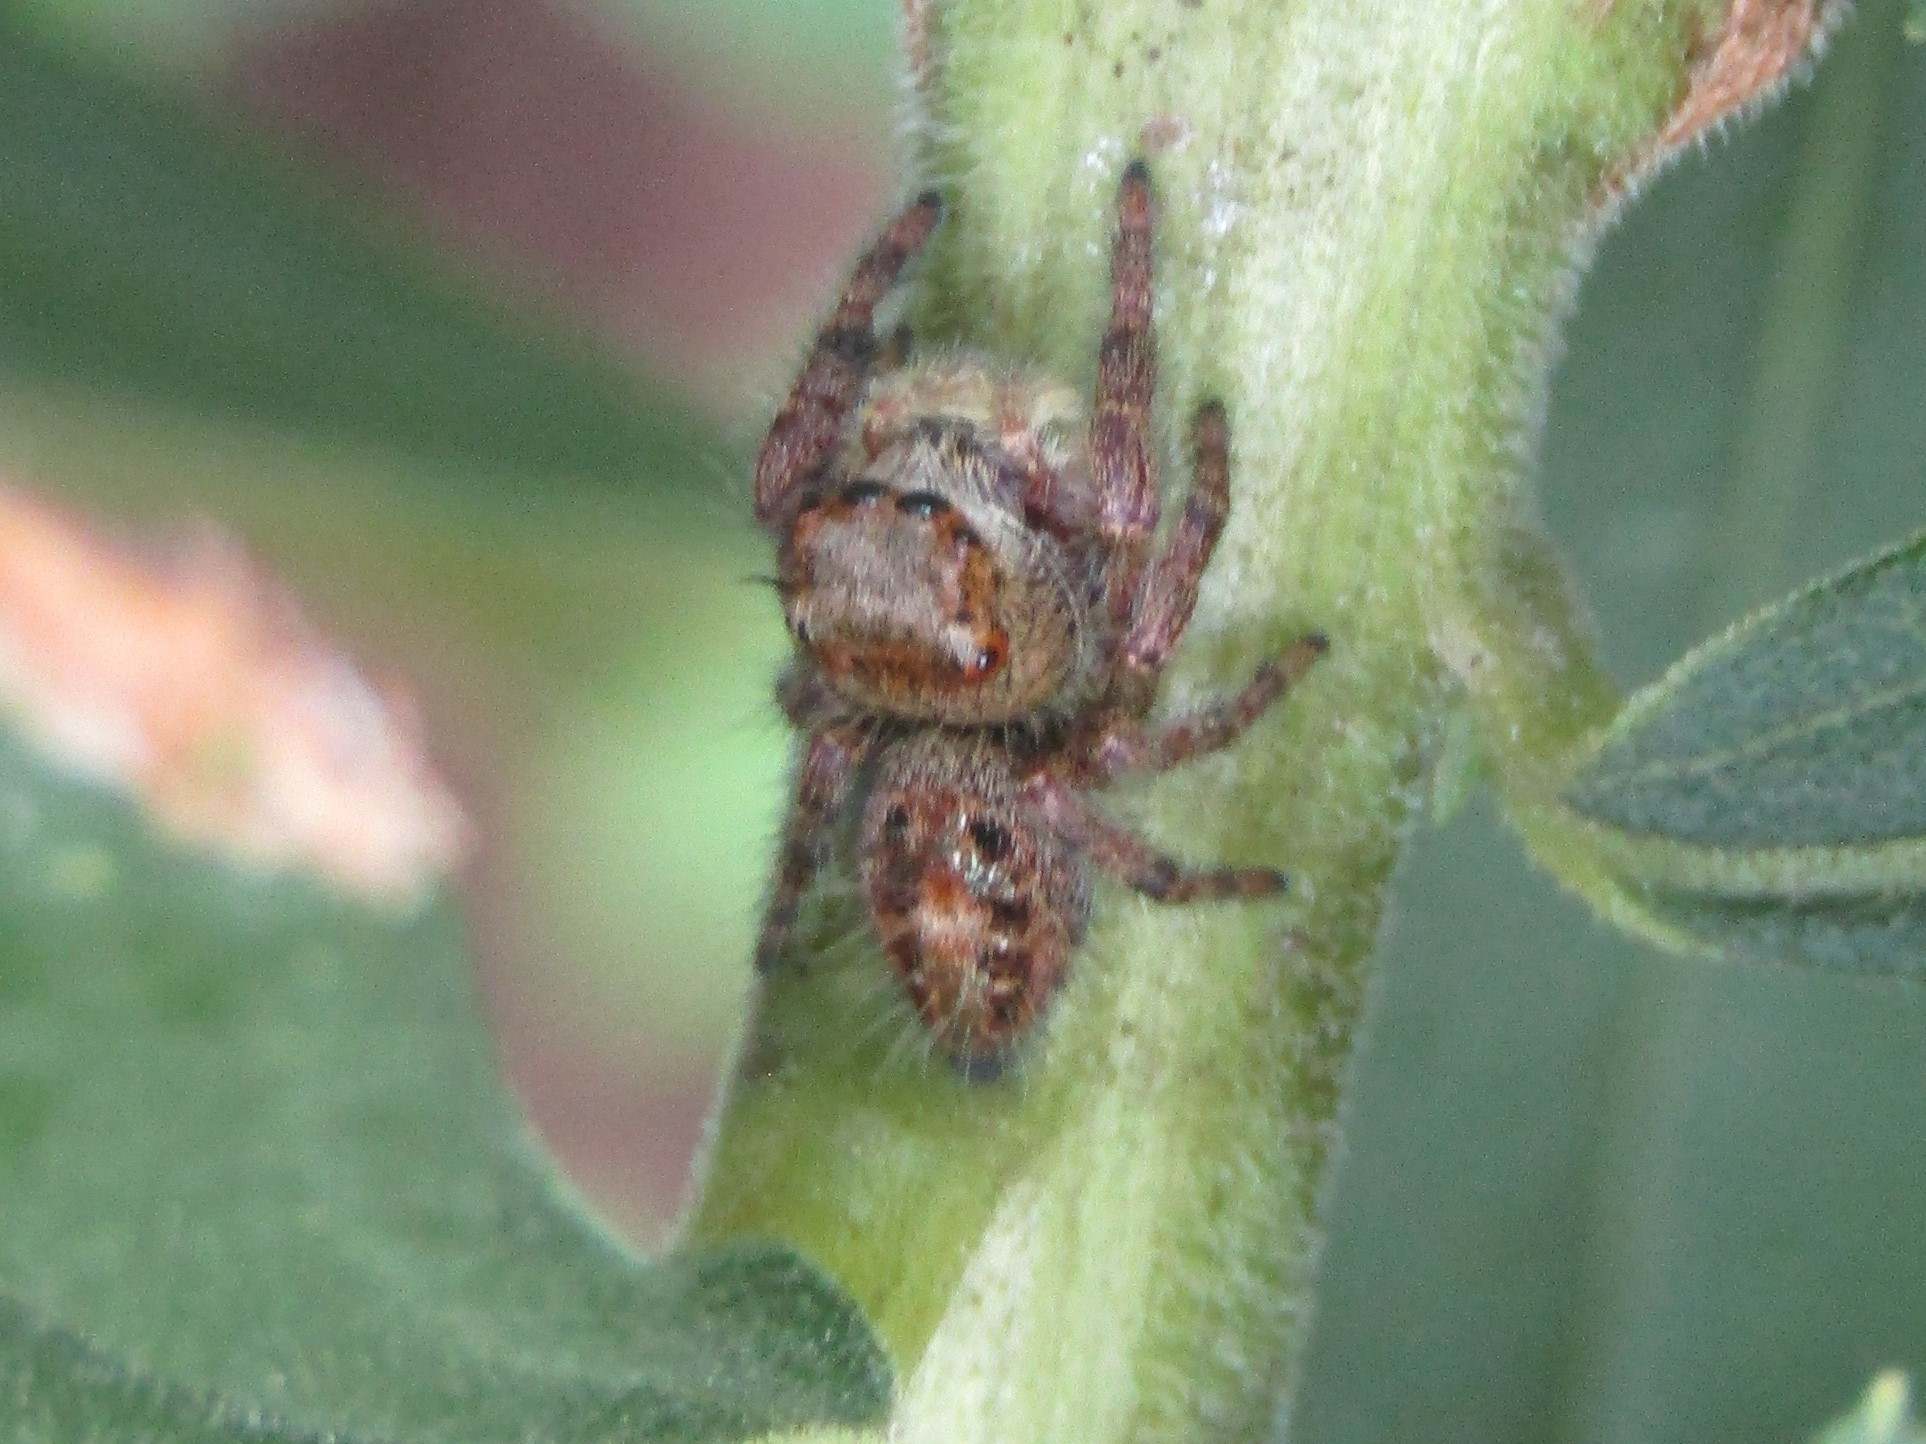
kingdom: Animalia
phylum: Arthropoda
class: Arachnida
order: Araneae
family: Salticidae
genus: Phidippus
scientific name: Phidippus princeps
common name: Grayish jumping spider
